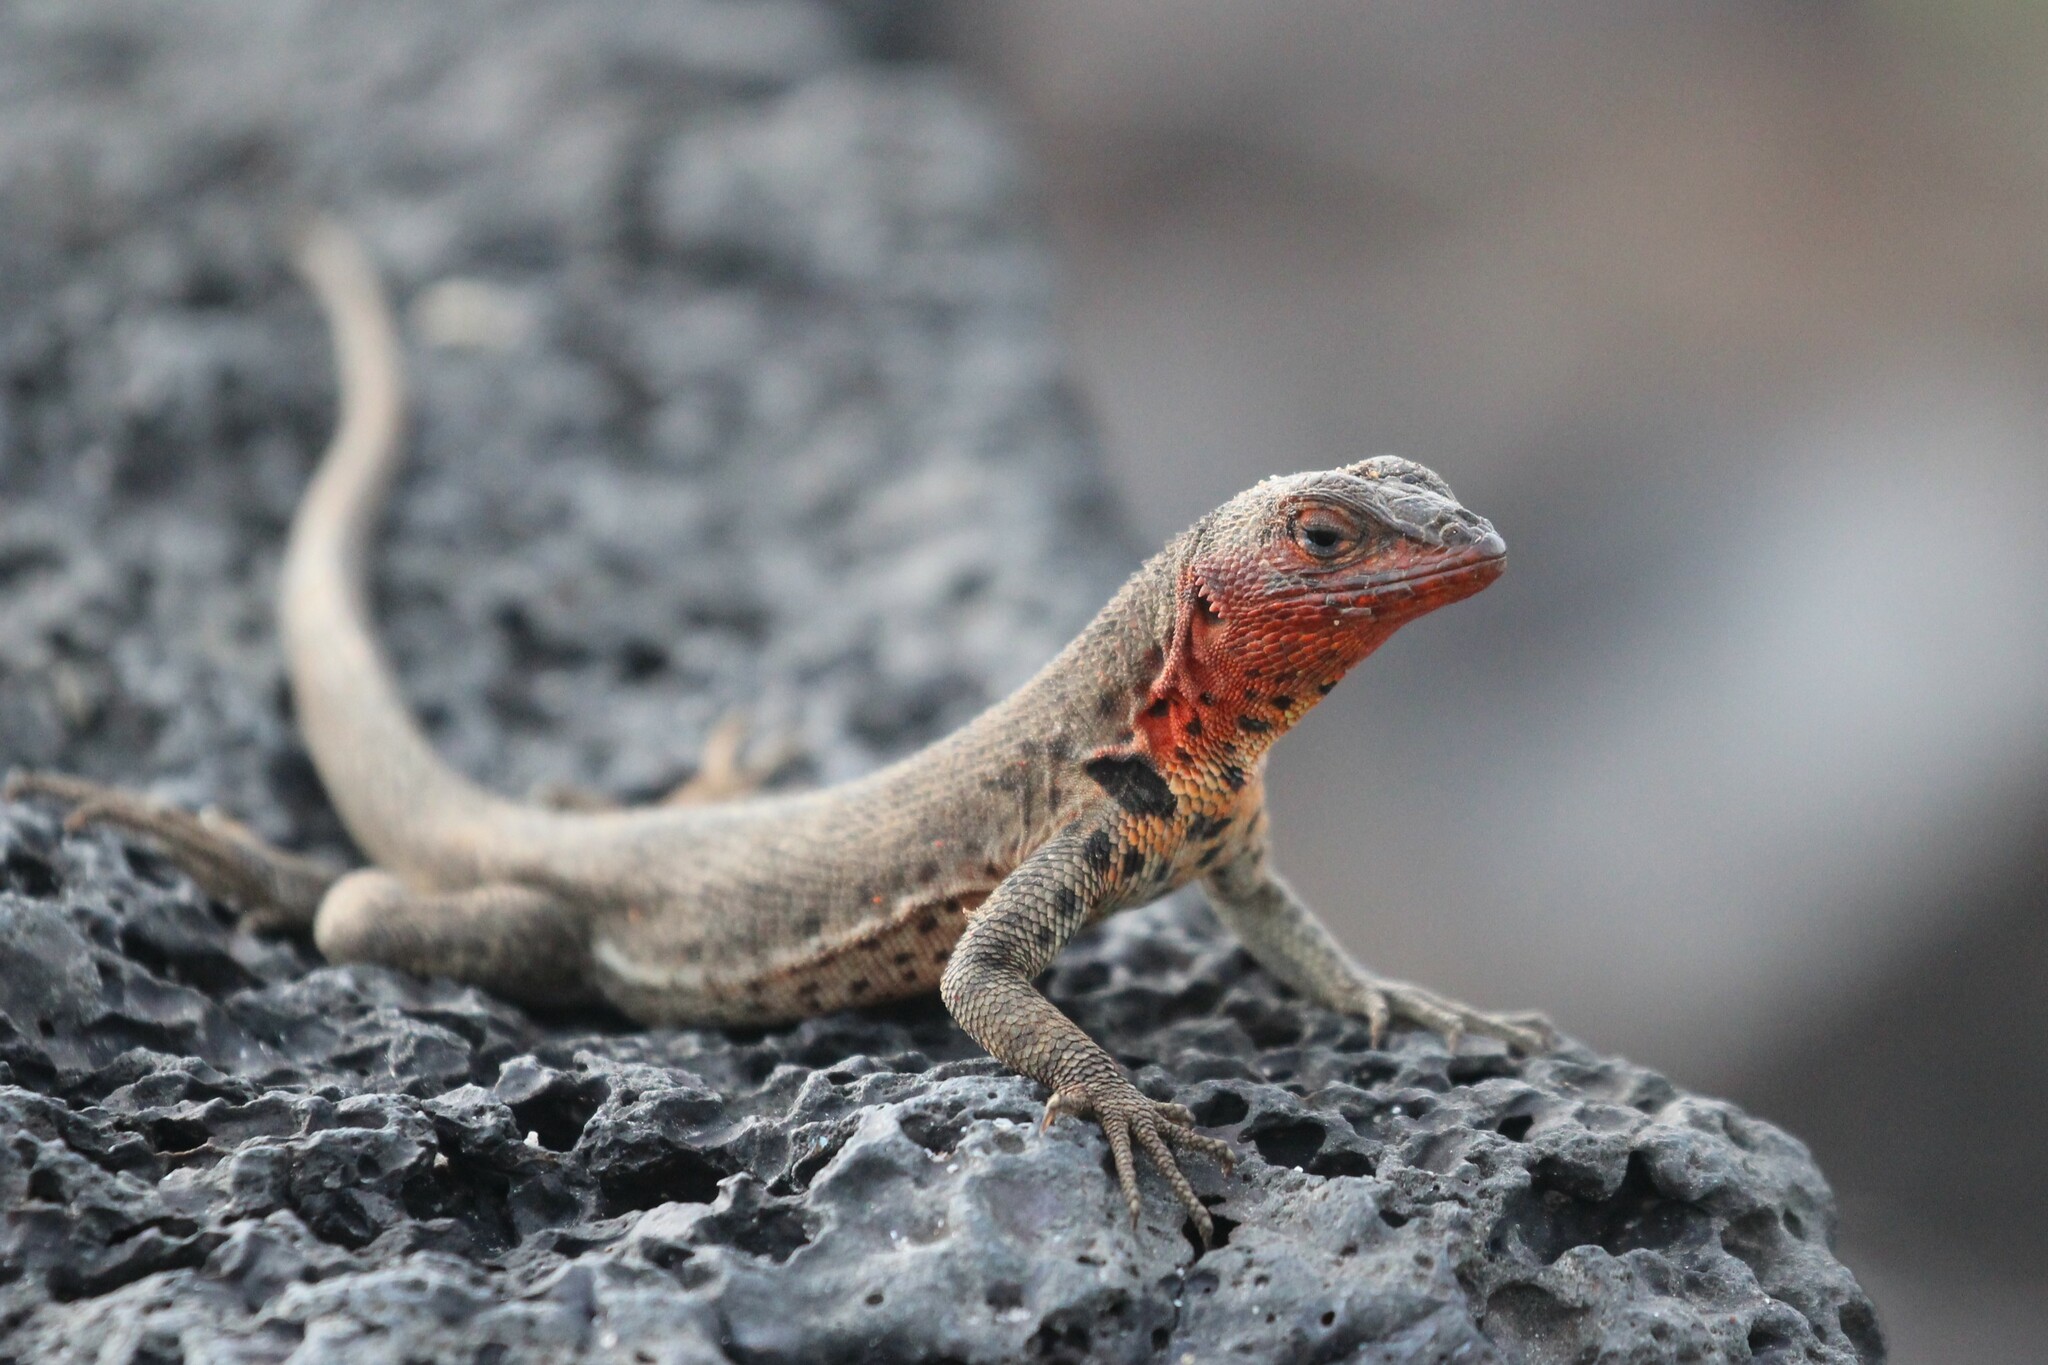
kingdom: Animalia
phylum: Chordata
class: Squamata
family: Tropiduridae
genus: Microlophus
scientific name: Microlophus jacobii
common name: Santiago lava lizard
